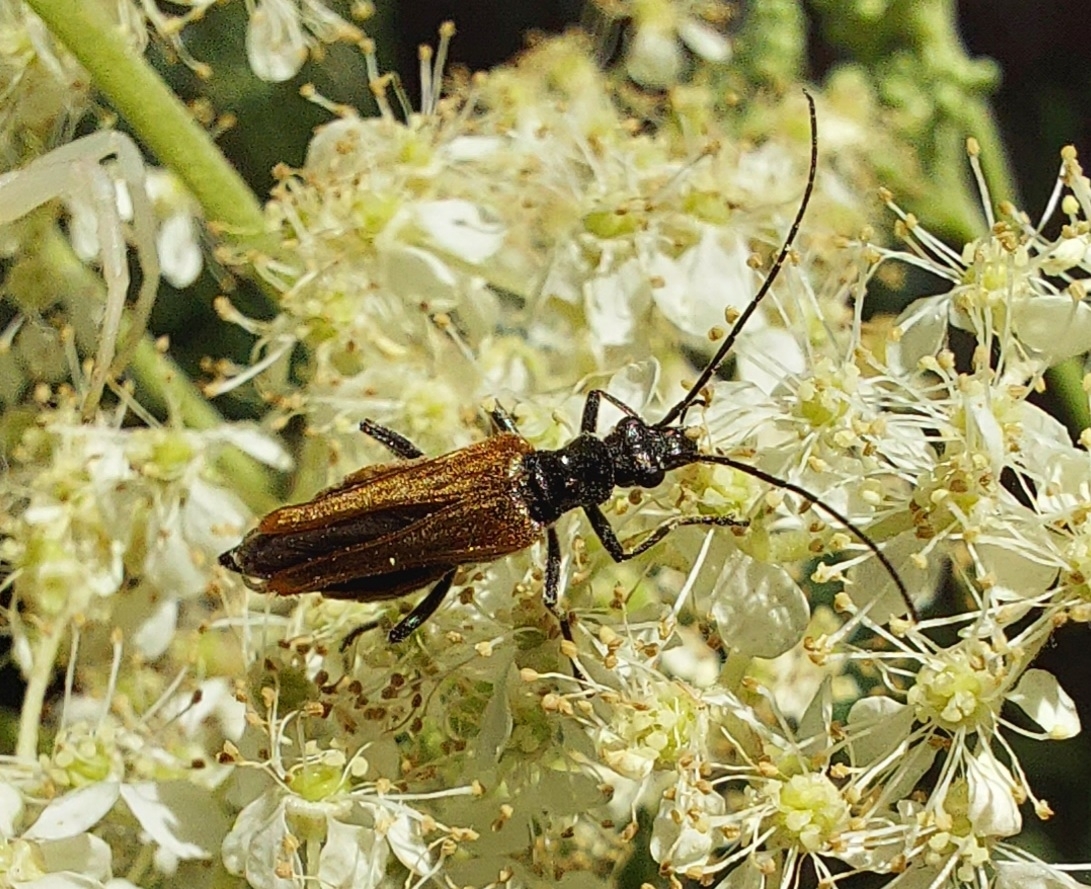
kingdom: Animalia
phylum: Arthropoda
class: Insecta
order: Coleoptera
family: Oedemeridae
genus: Oedemera
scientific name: Oedemera femorata
